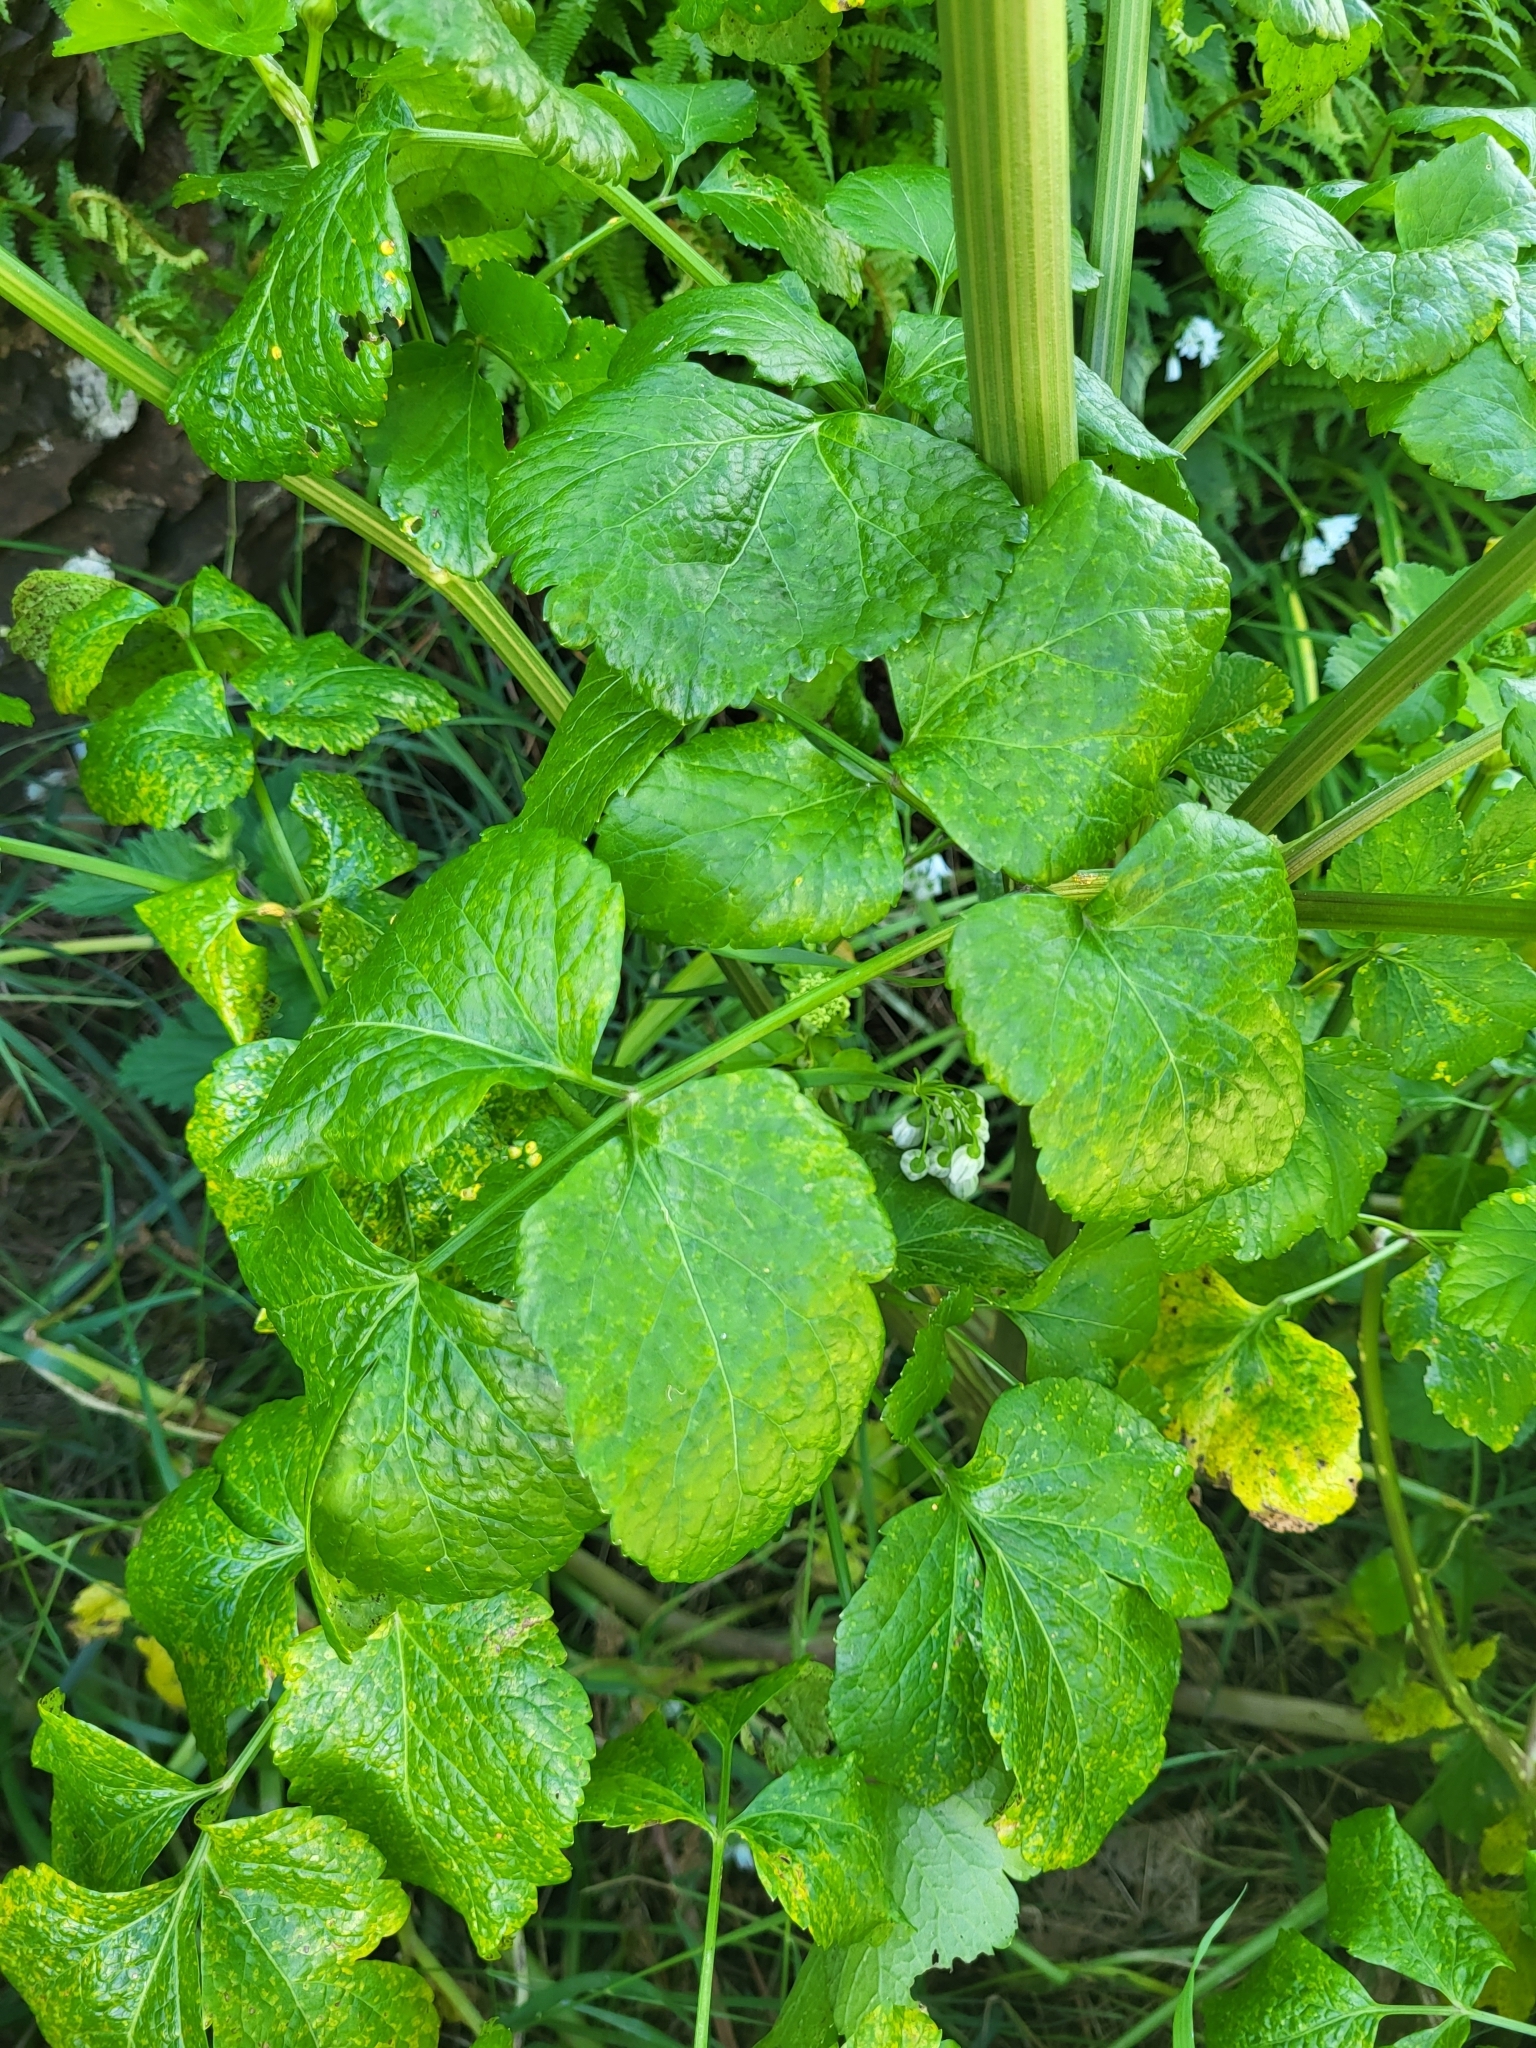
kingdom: Plantae
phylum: Tracheophyta
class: Magnoliopsida
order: Apiales
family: Apiaceae
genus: Smyrnium
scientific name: Smyrnium olusatrum
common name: Alexanders
